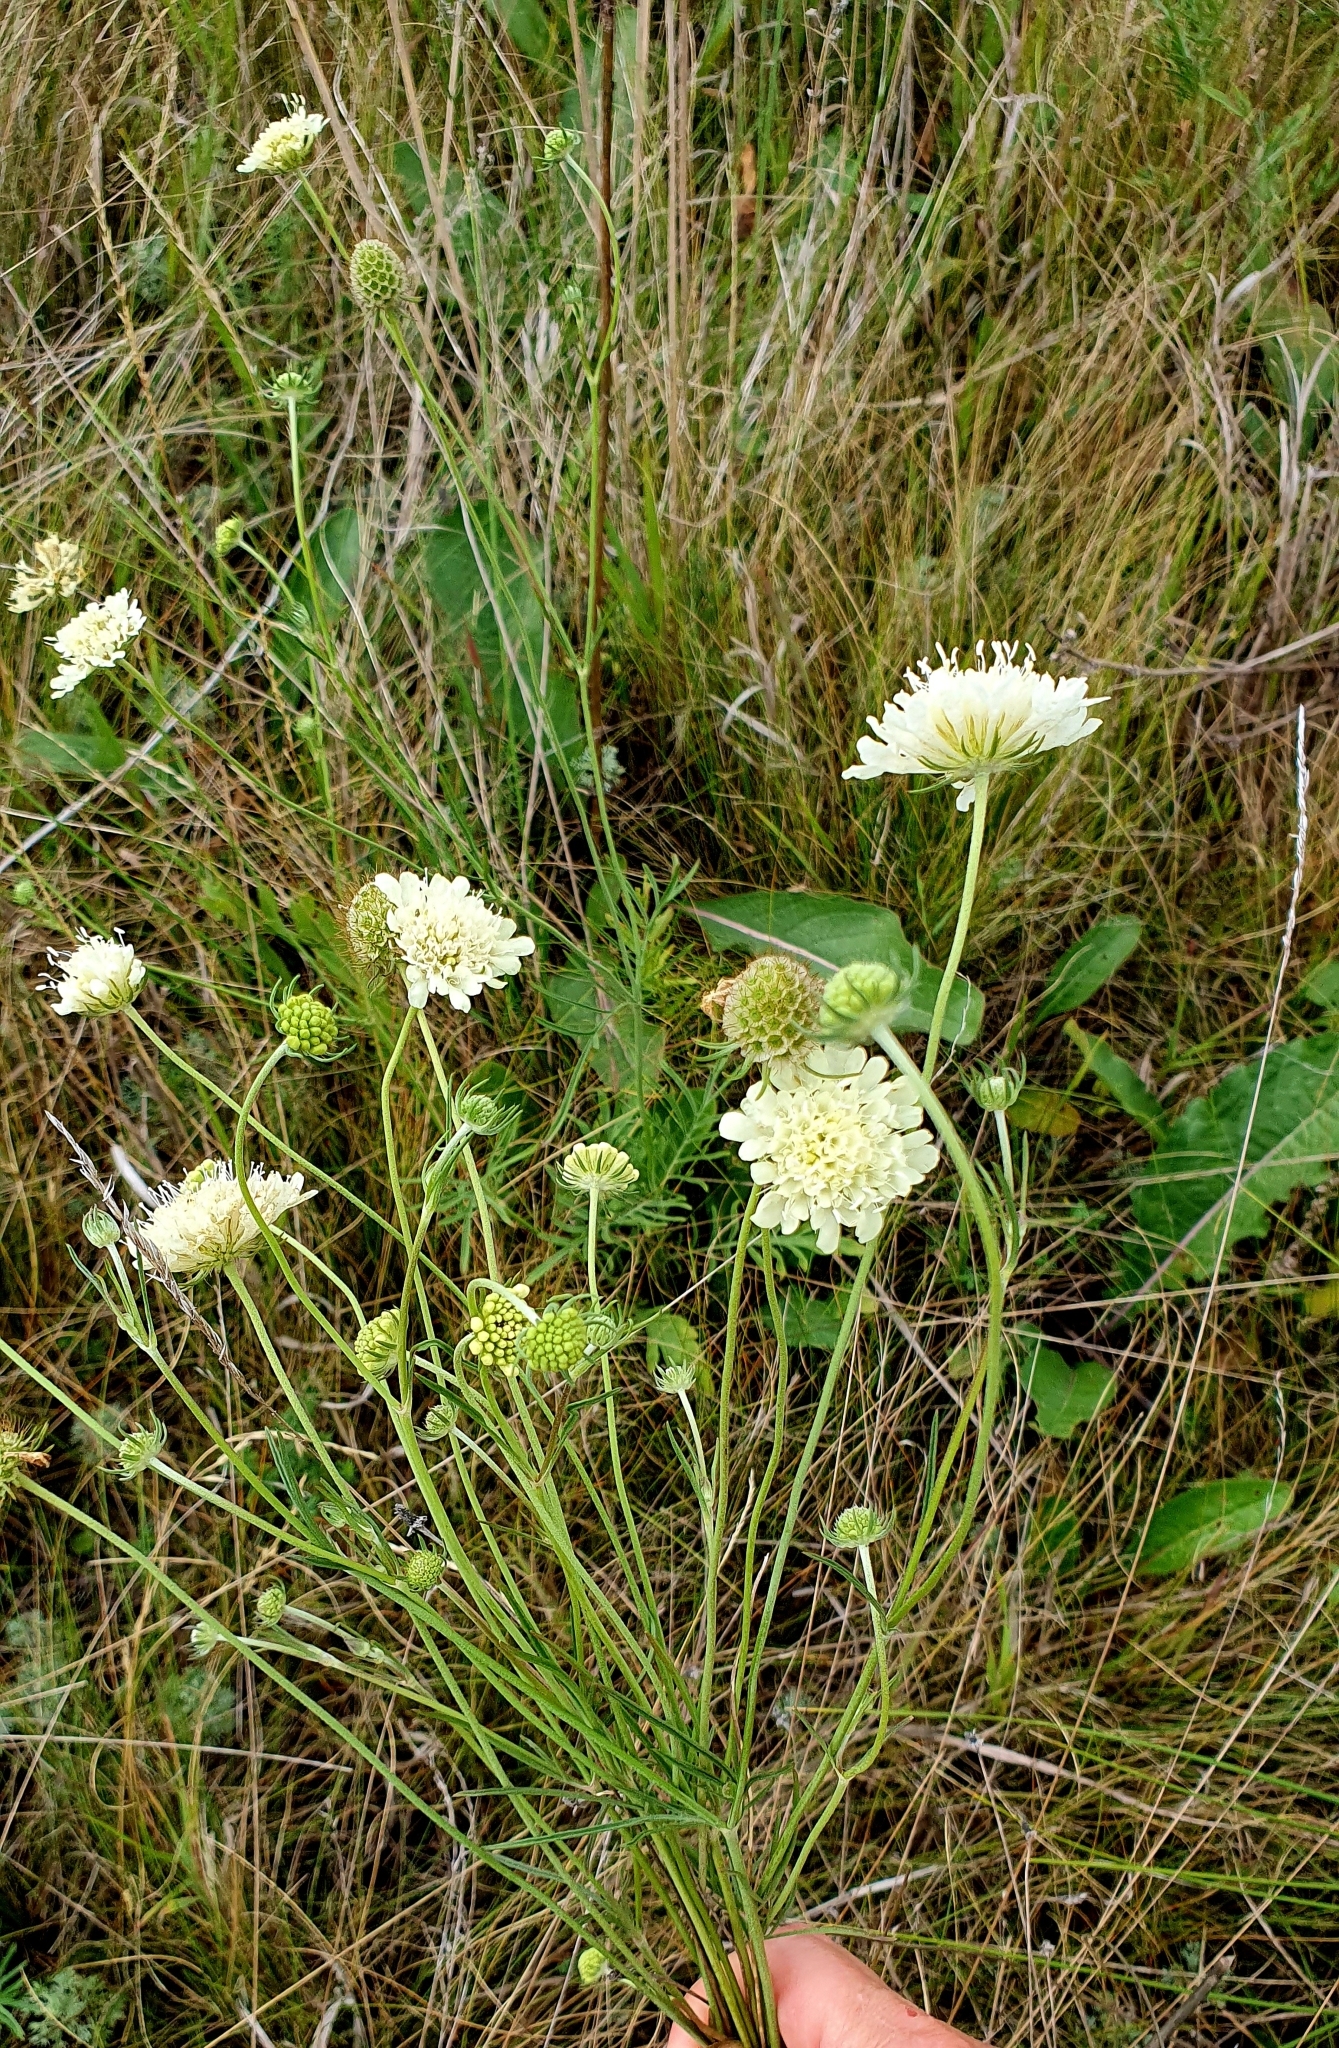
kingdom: Plantae
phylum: Tracheophyta
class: Magnoliopsida
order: Dipsacales
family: Caprifoliaceae
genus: Scabiosa
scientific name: Scabiosa ochroleuca
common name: Cream pincushions
